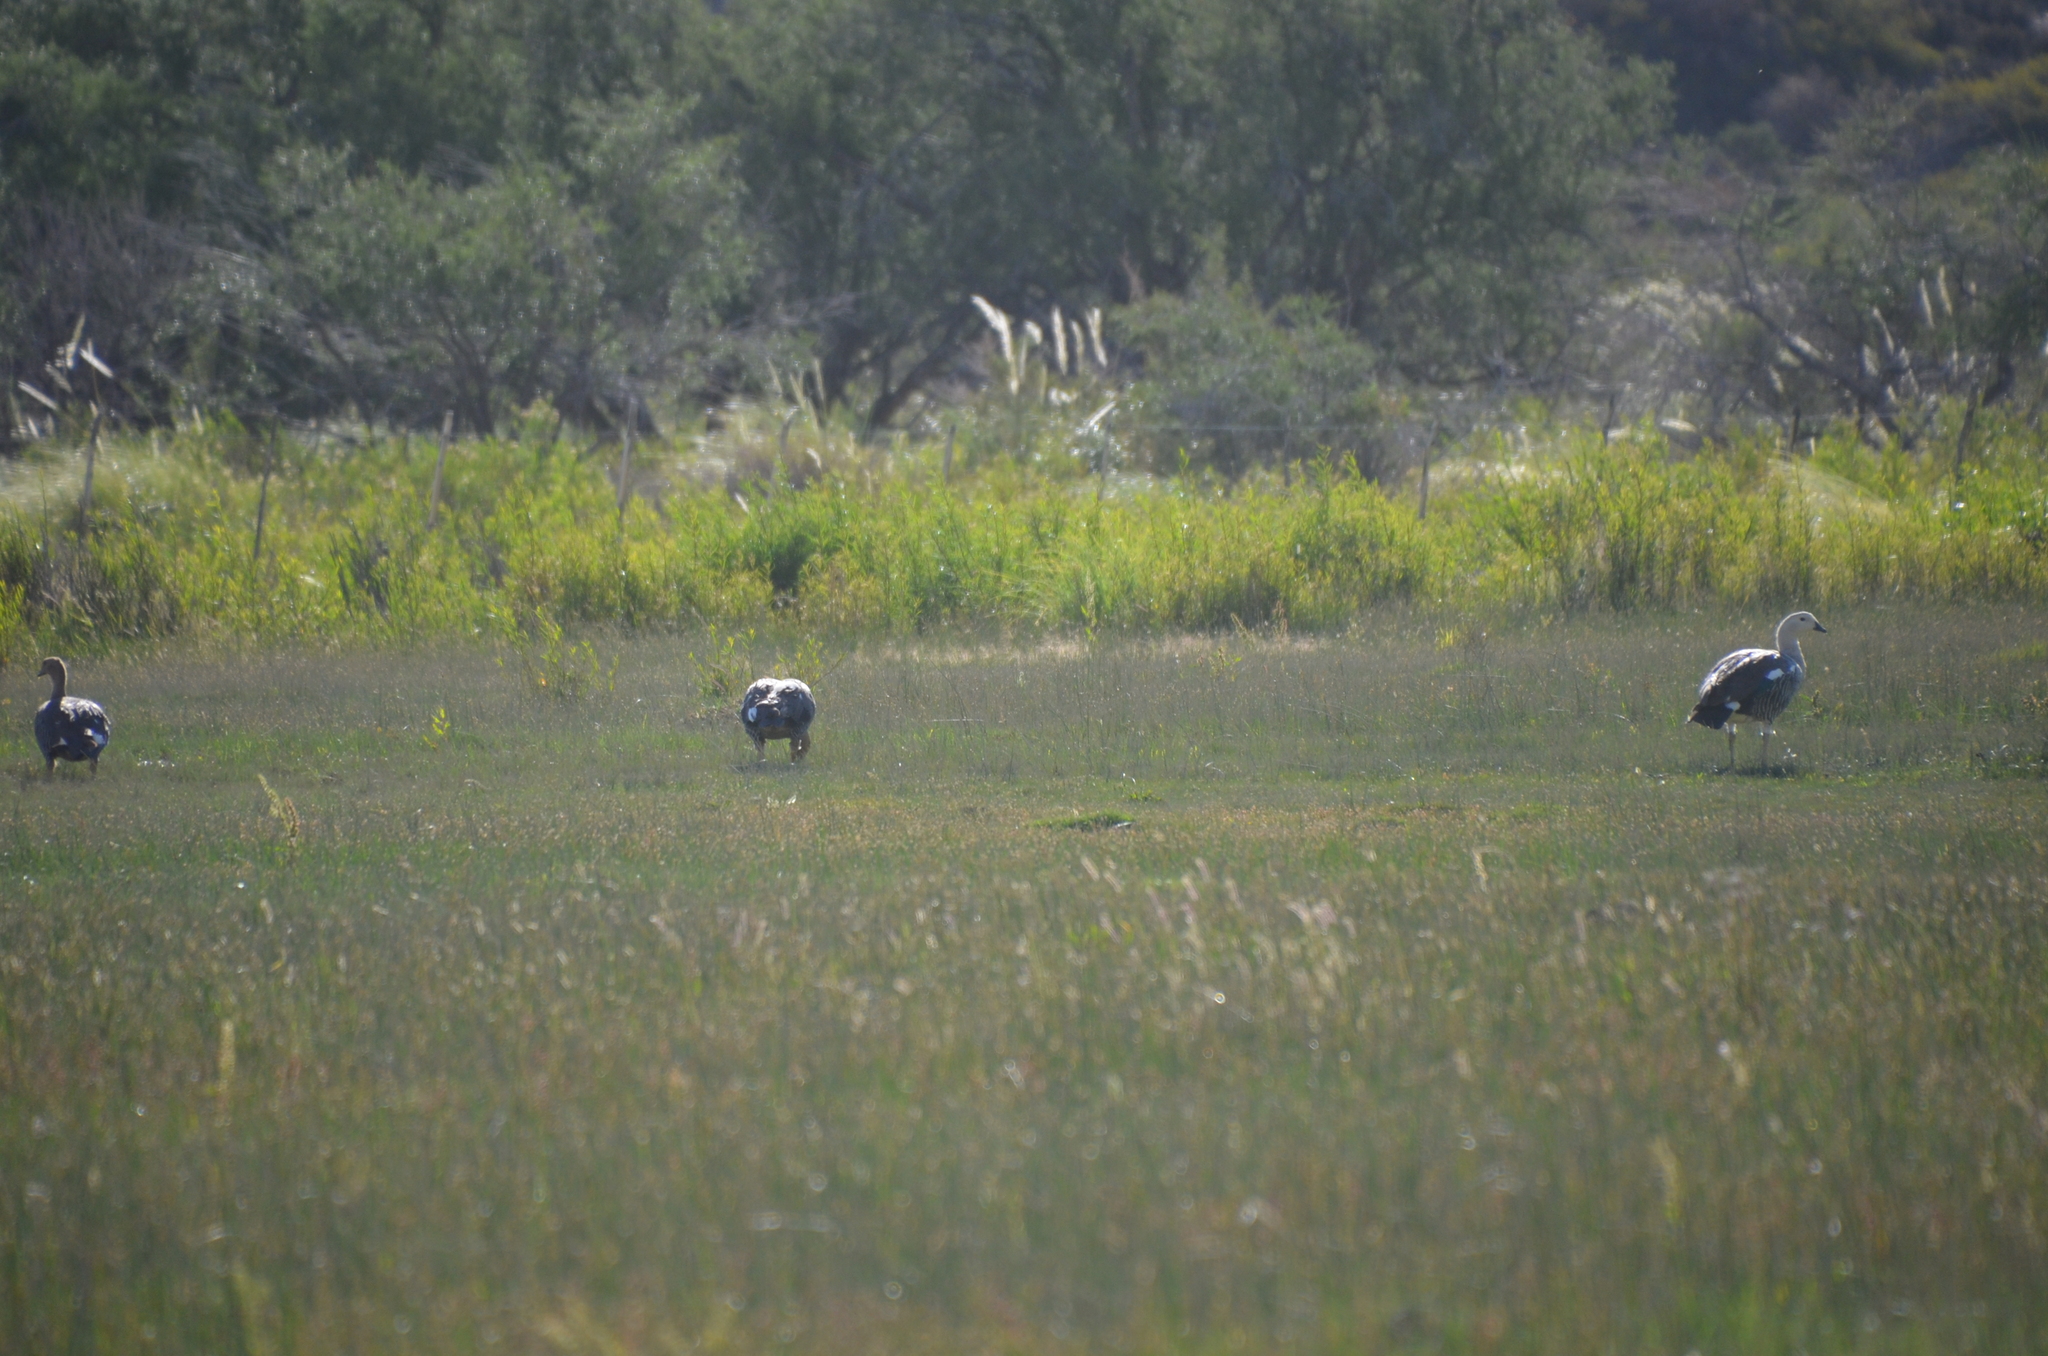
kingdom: Animalia
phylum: Chordata
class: Aves
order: Anseriformes
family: Anatidae
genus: Chloephaga
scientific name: Chloephaga picta
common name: Upland goose
